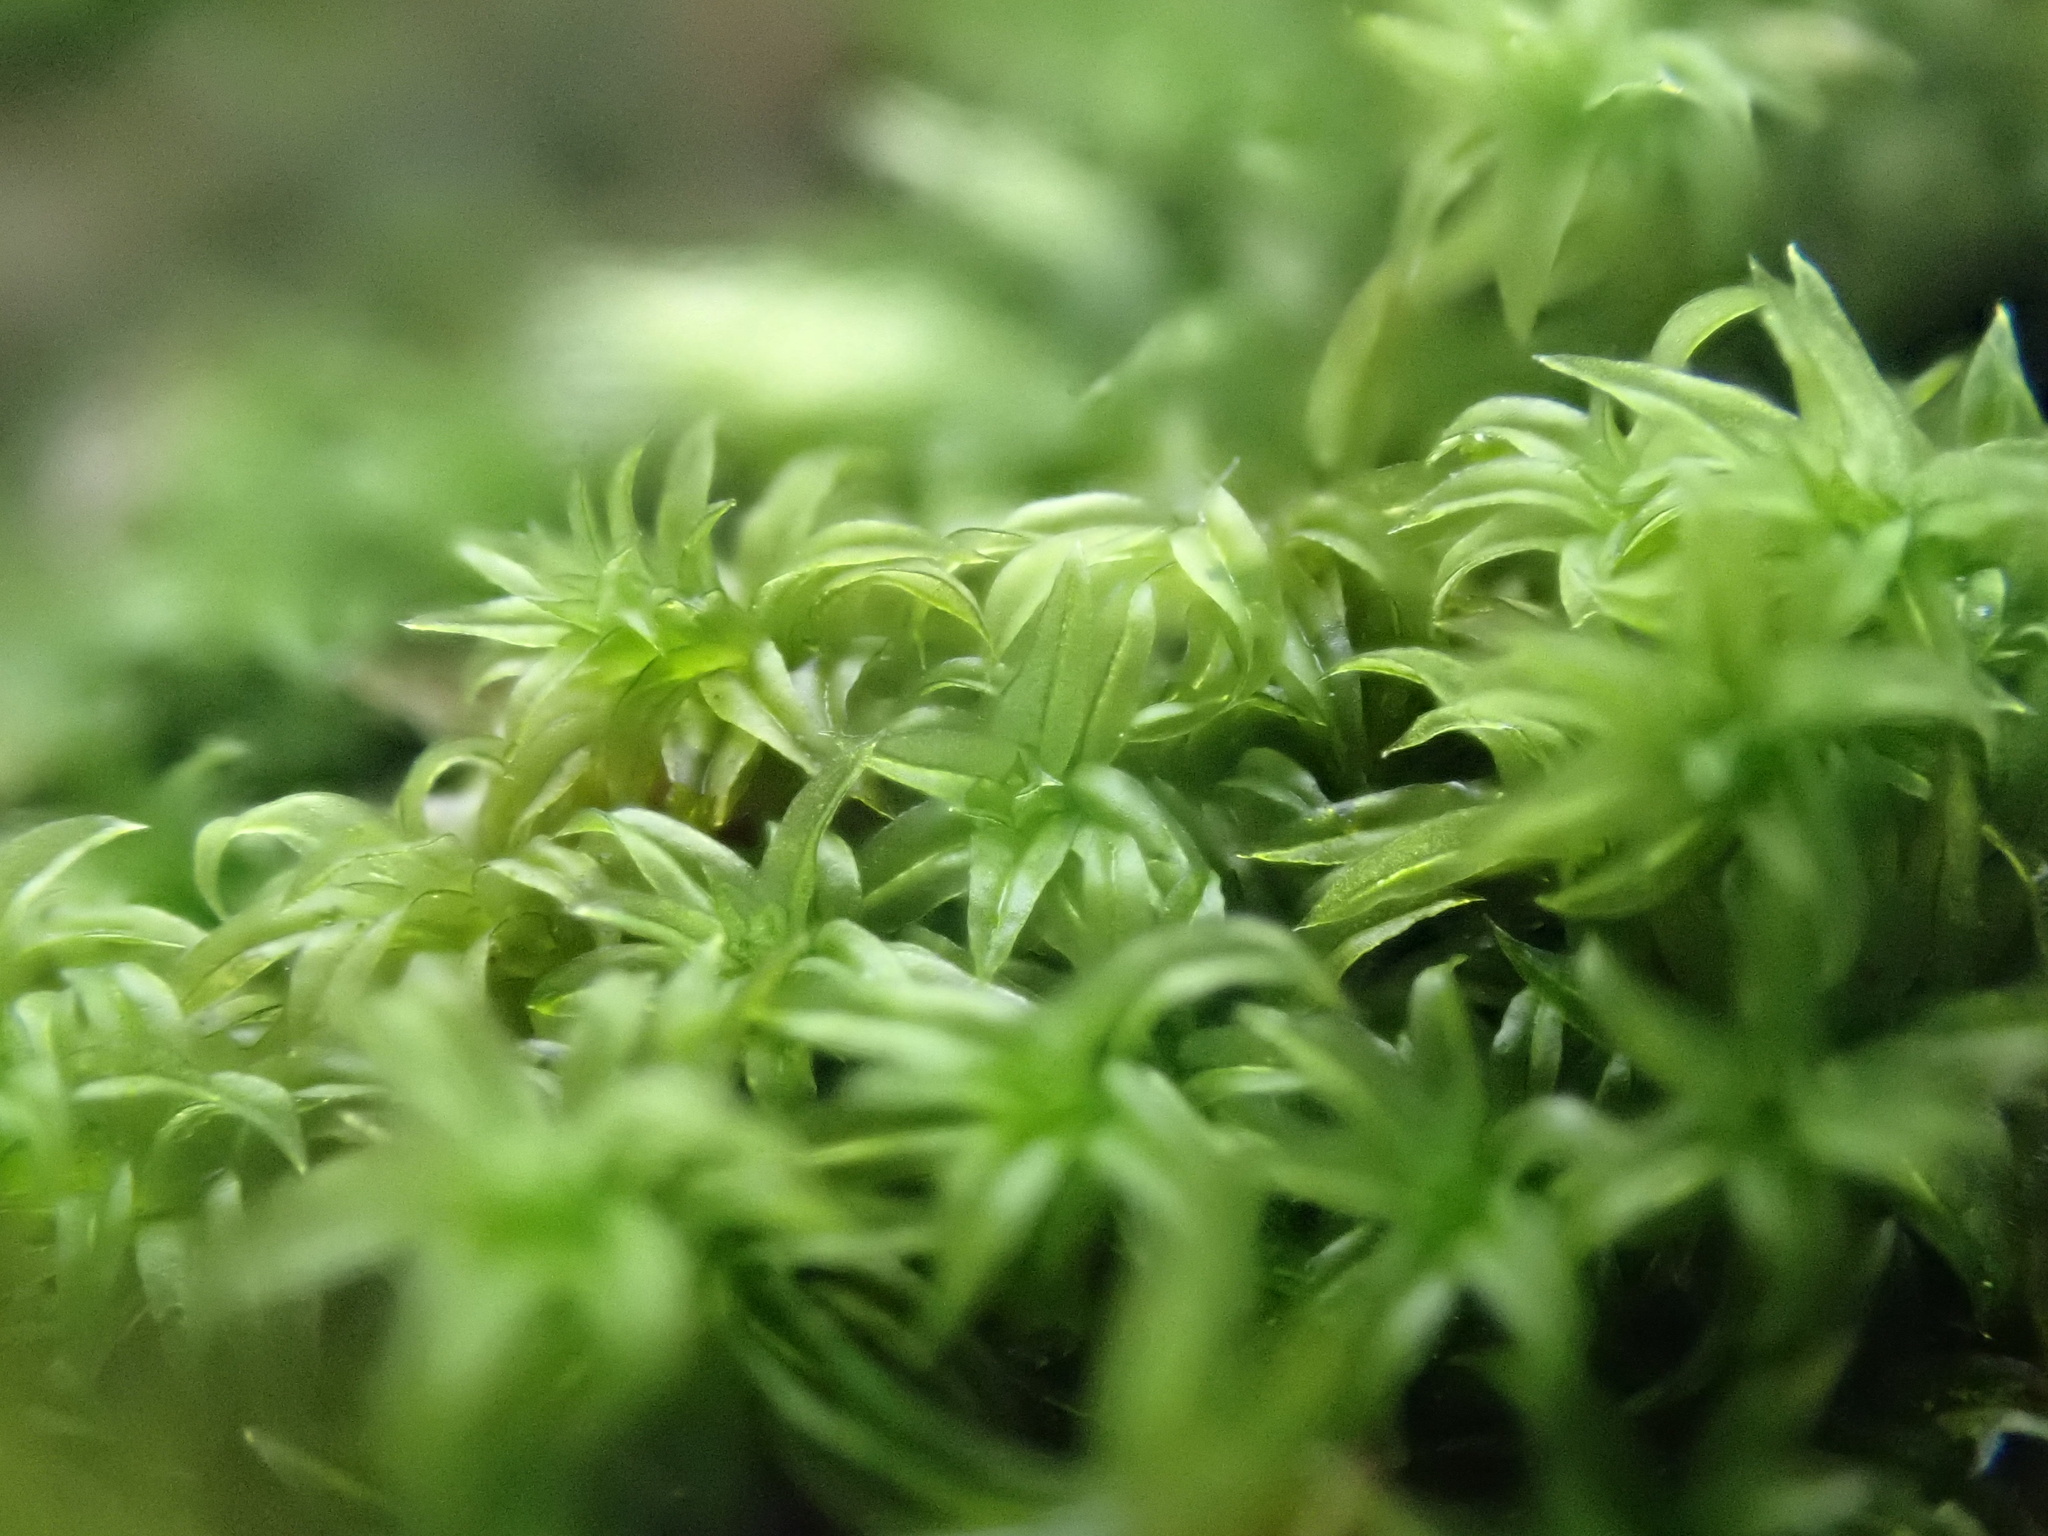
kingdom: Plantae
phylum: Bryophyta
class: Bryopsida
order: Orthotrichales
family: Orthotrichaceae
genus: Zygodon
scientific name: Zygodon viridissimus
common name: Green yoke moss
